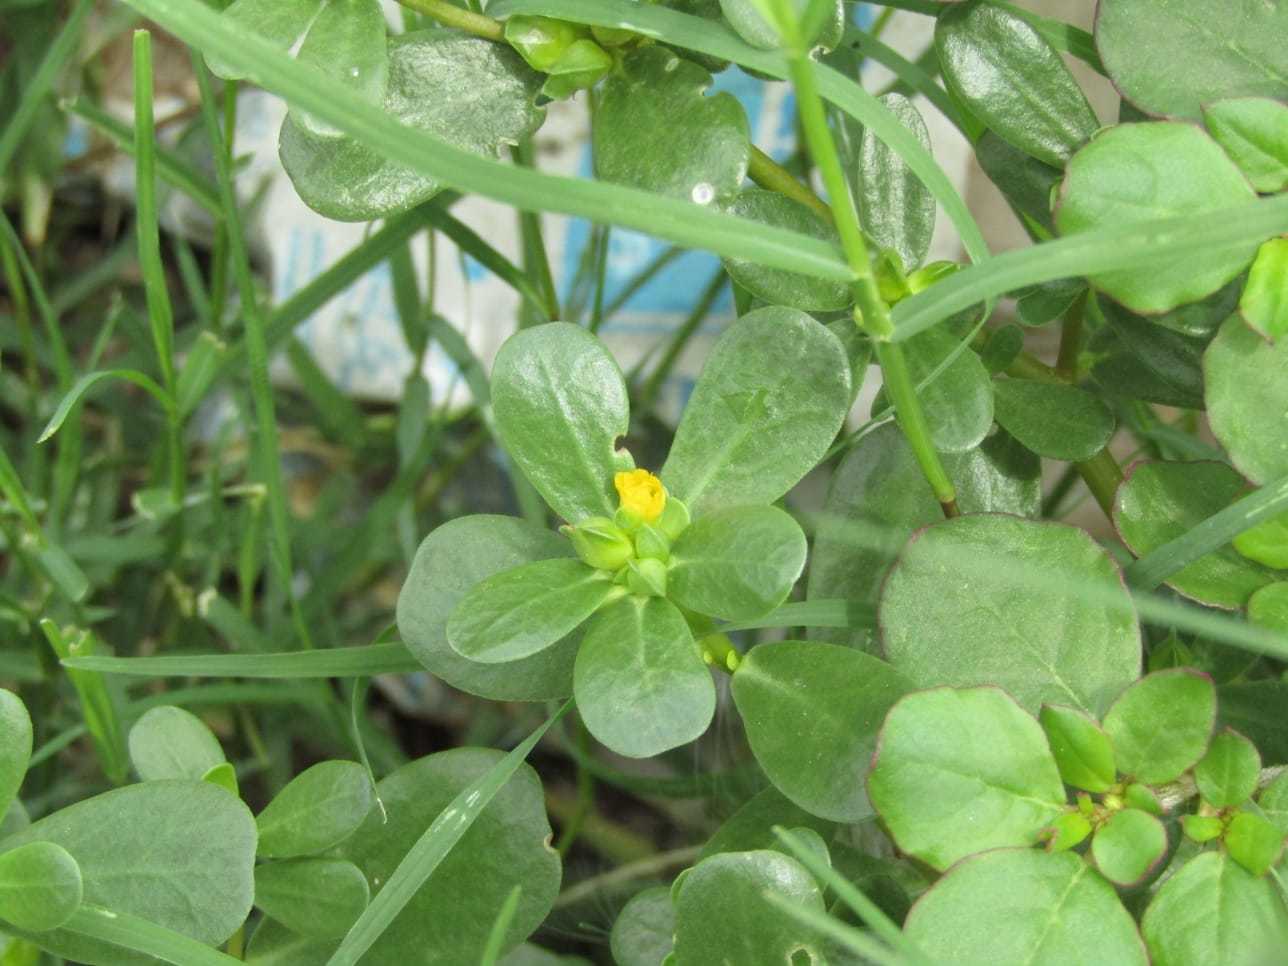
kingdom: Plantae
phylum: Tracheophyta
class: Magnoliopsida
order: Caryophyllales
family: Portulacaceae
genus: Portulaca
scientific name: Portulaca oleracea
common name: Common purslane
